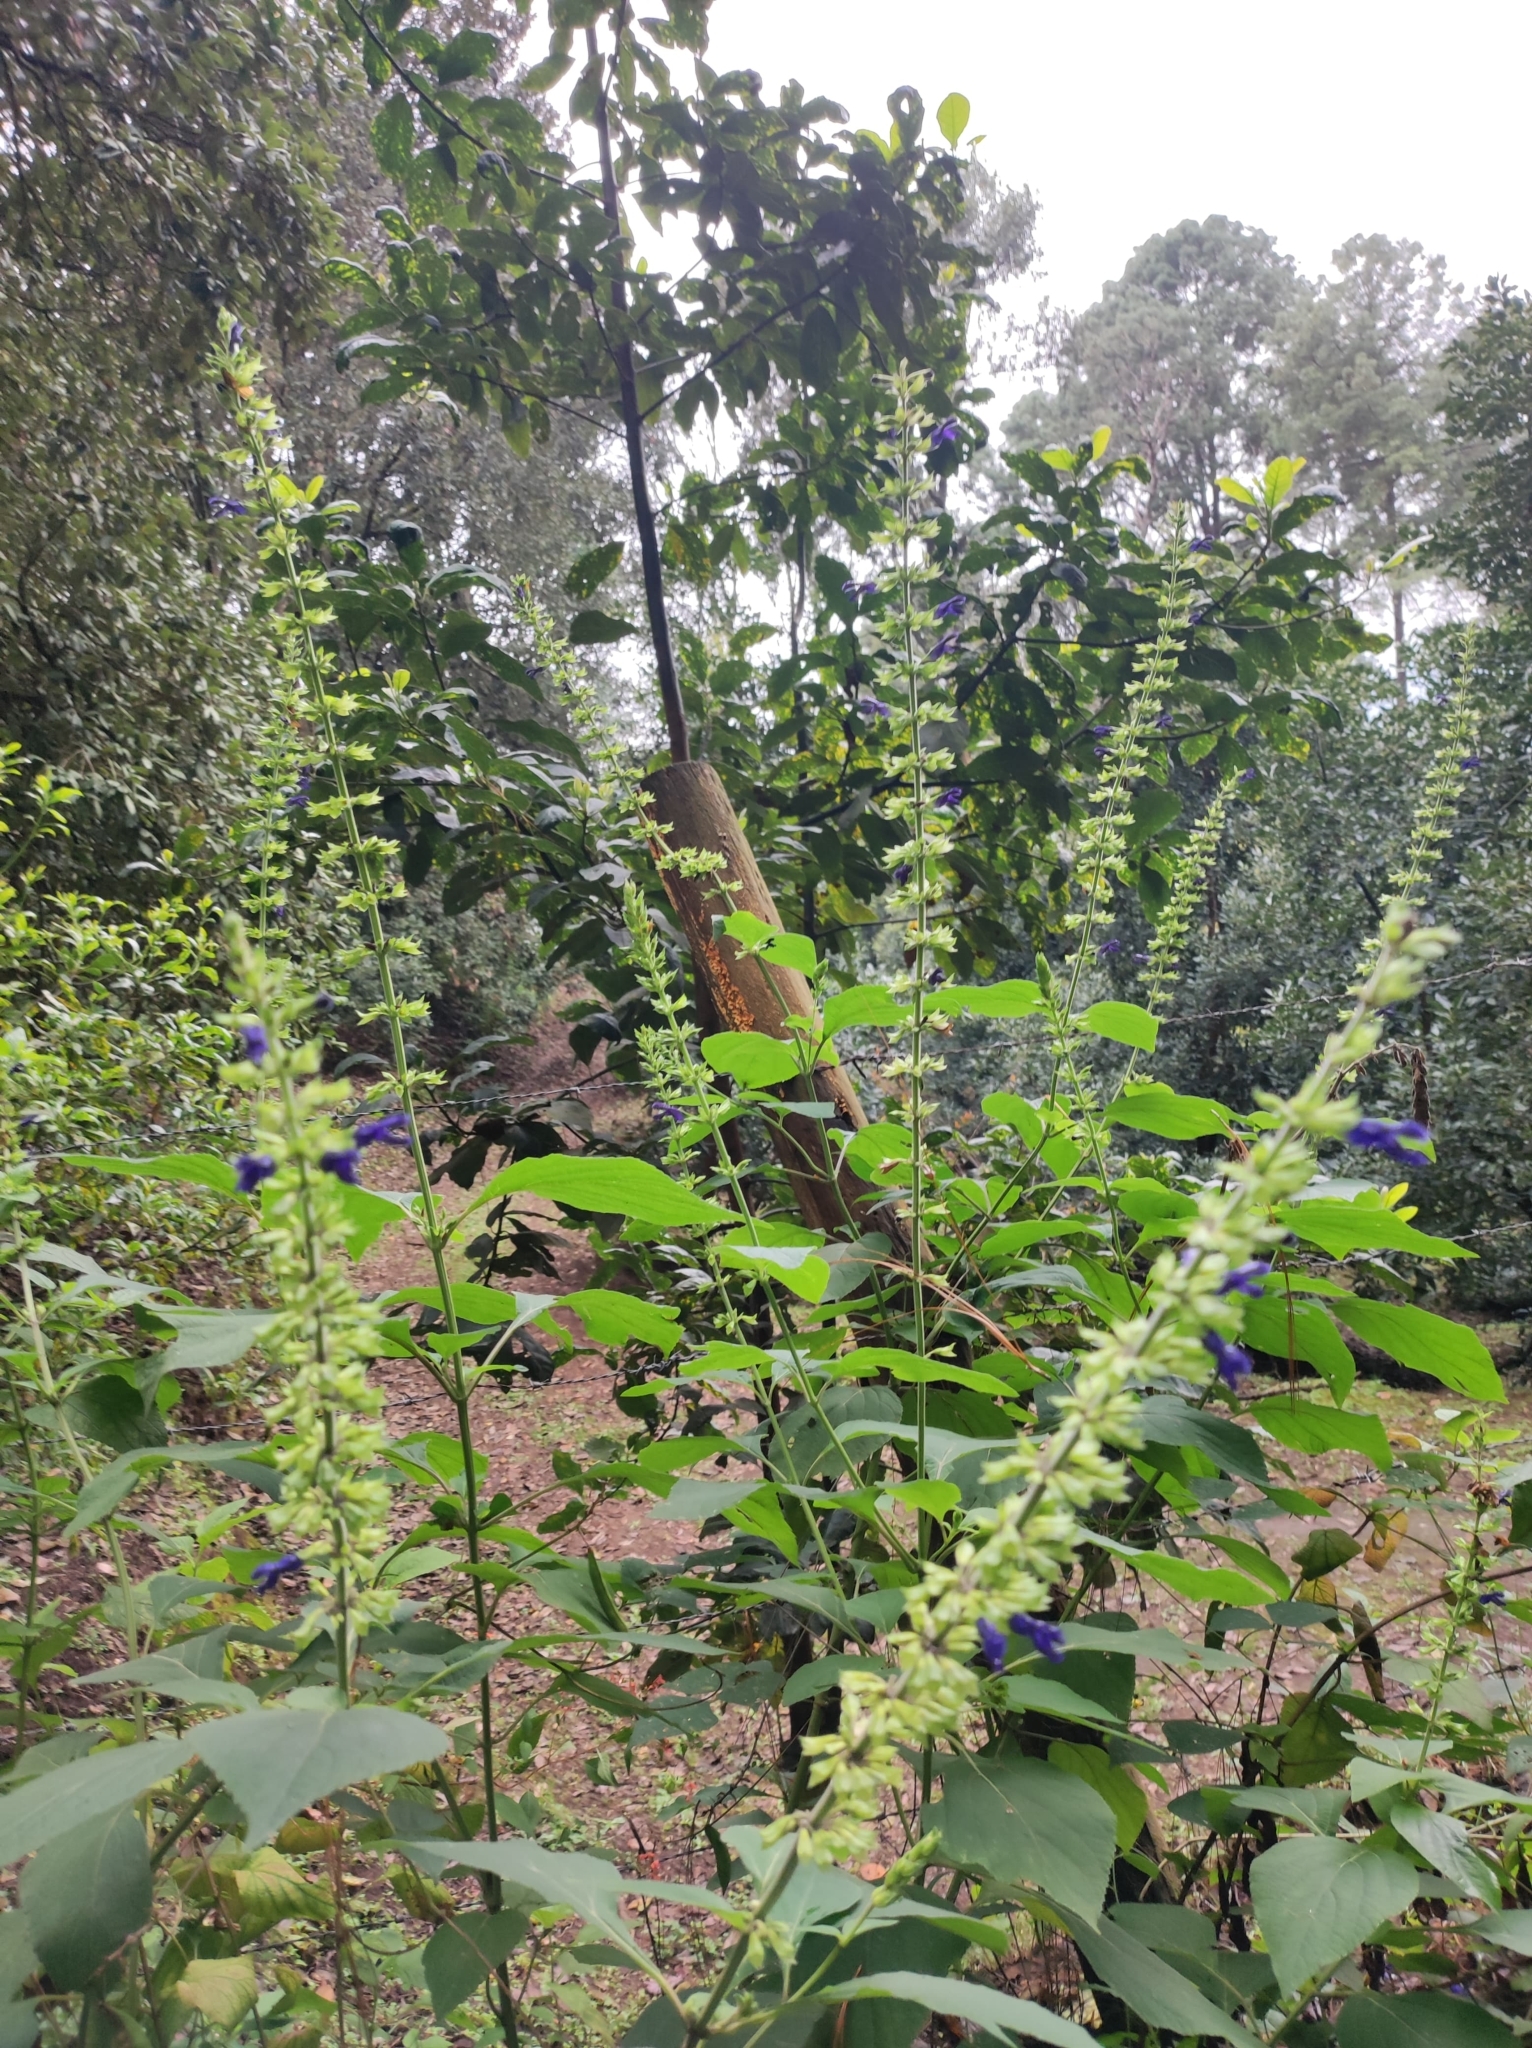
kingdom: Plantae
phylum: Tracheophyta
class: Magnoliopsida
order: Lamiales
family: Lamiaceae
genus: Salvia
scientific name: Salvia mexicana
